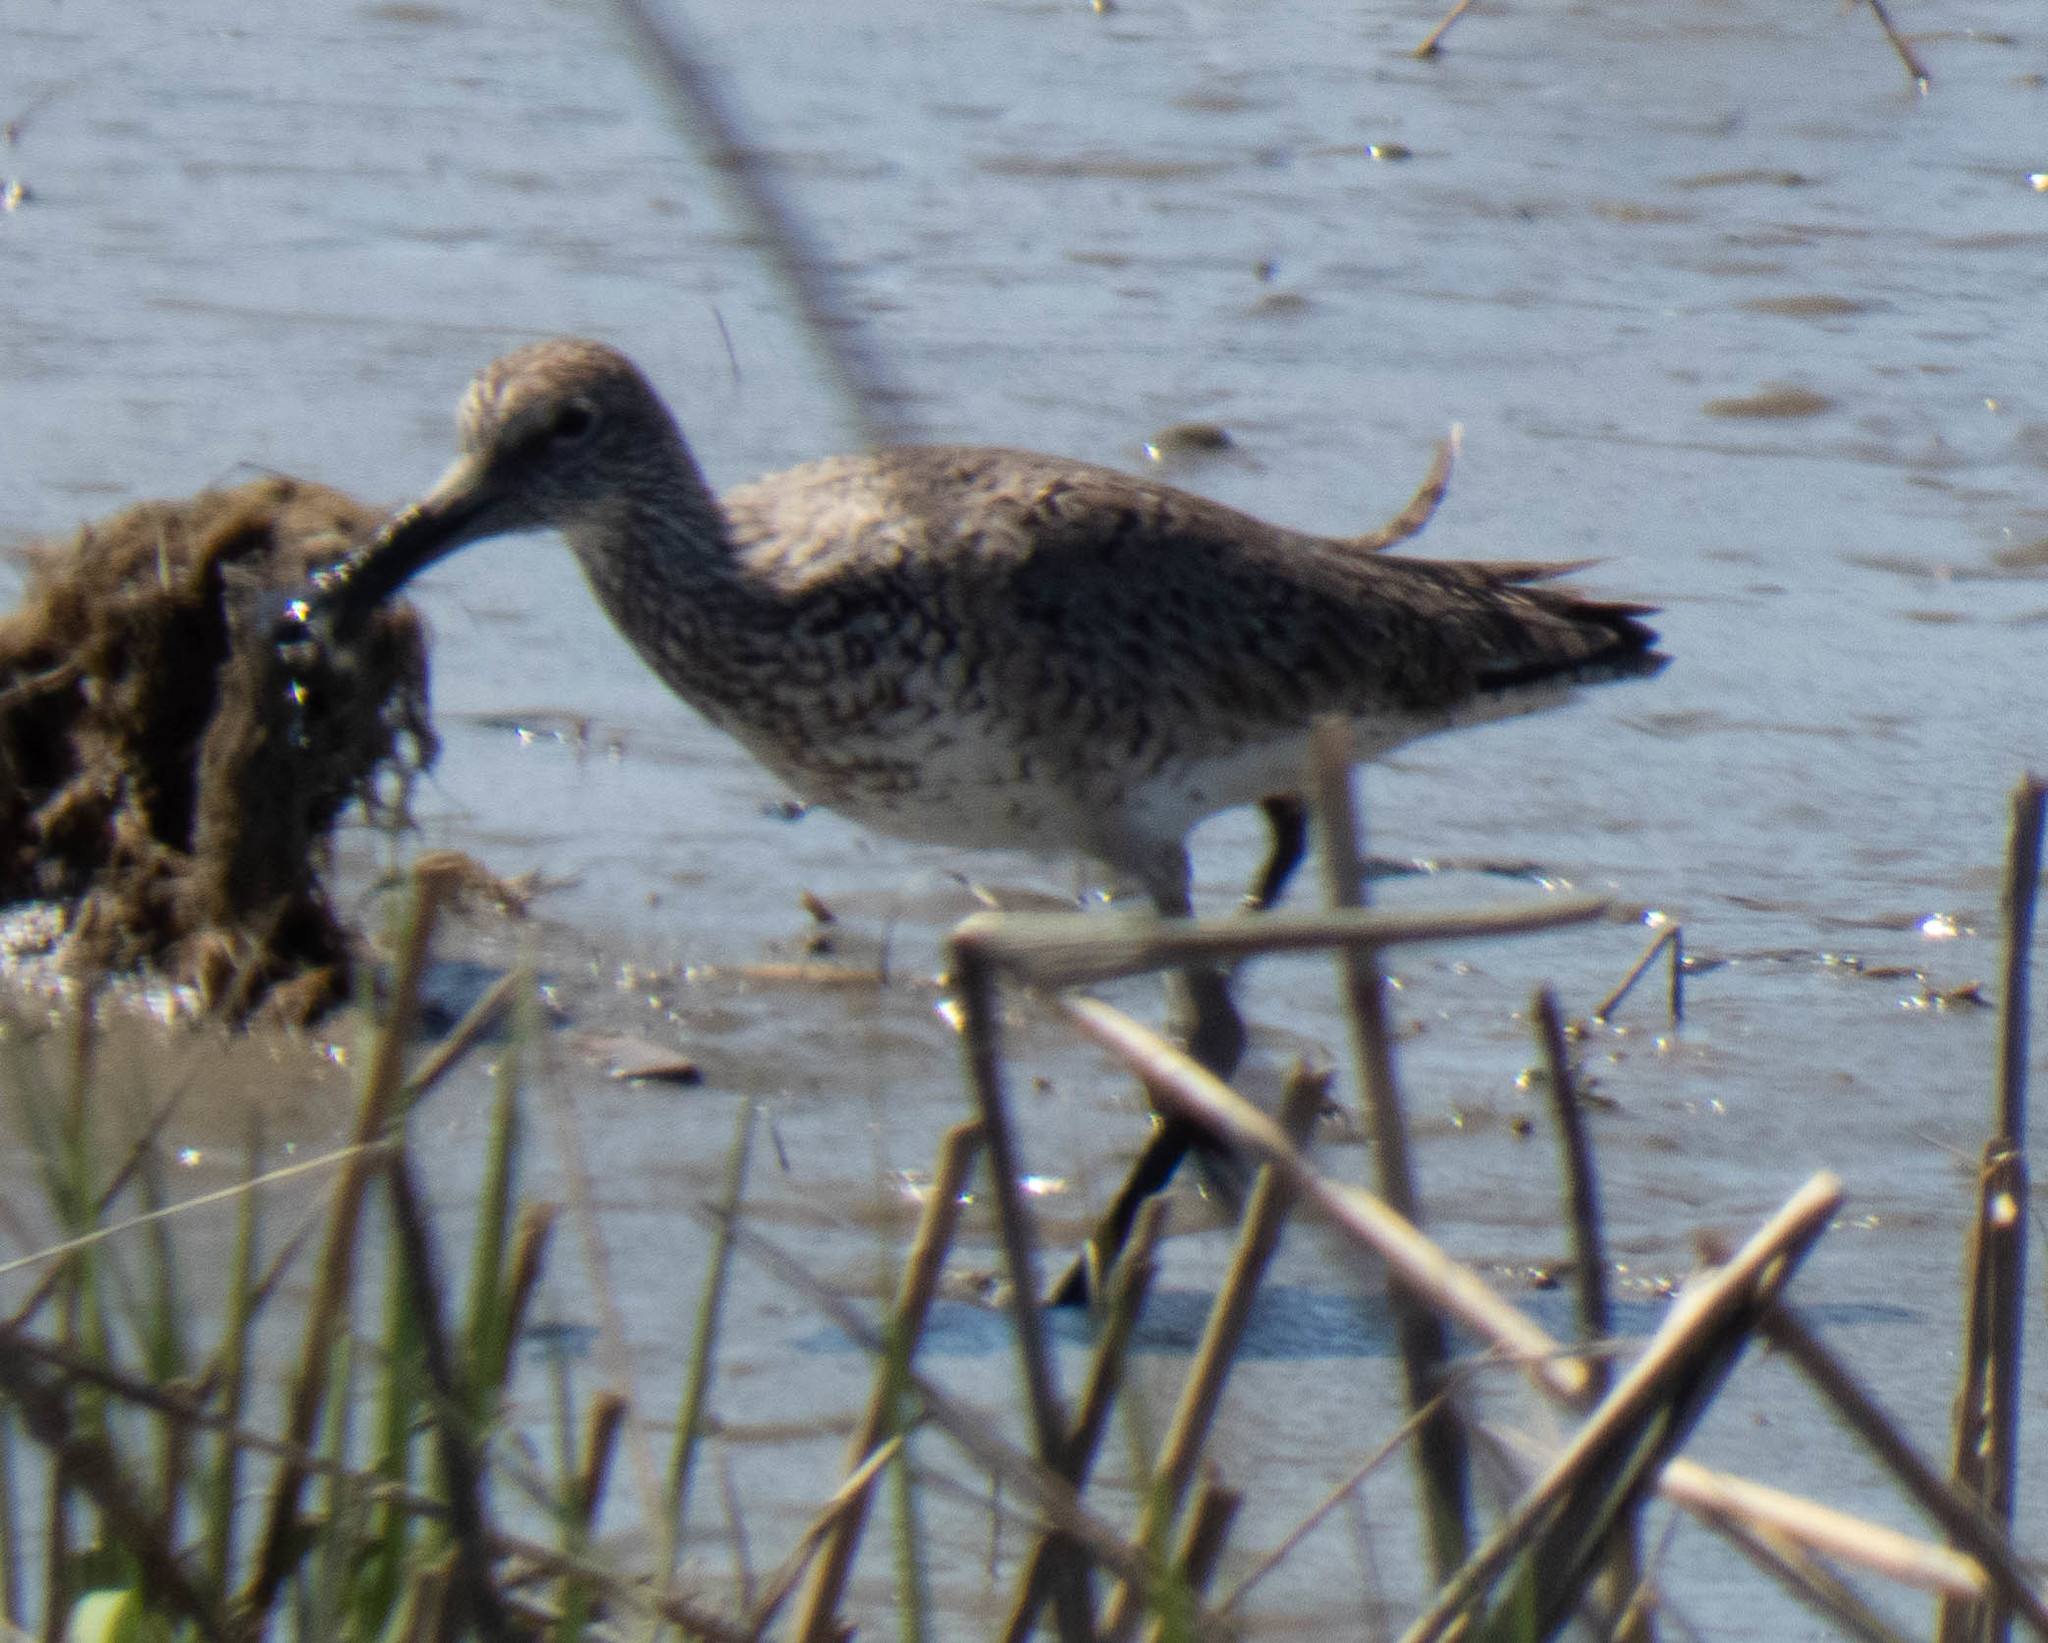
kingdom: Animalia
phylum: Chordata
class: Aves
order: Charadriiformes
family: Scolopacidae
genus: Tringa
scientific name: Tringa semipalmata
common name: Willet
